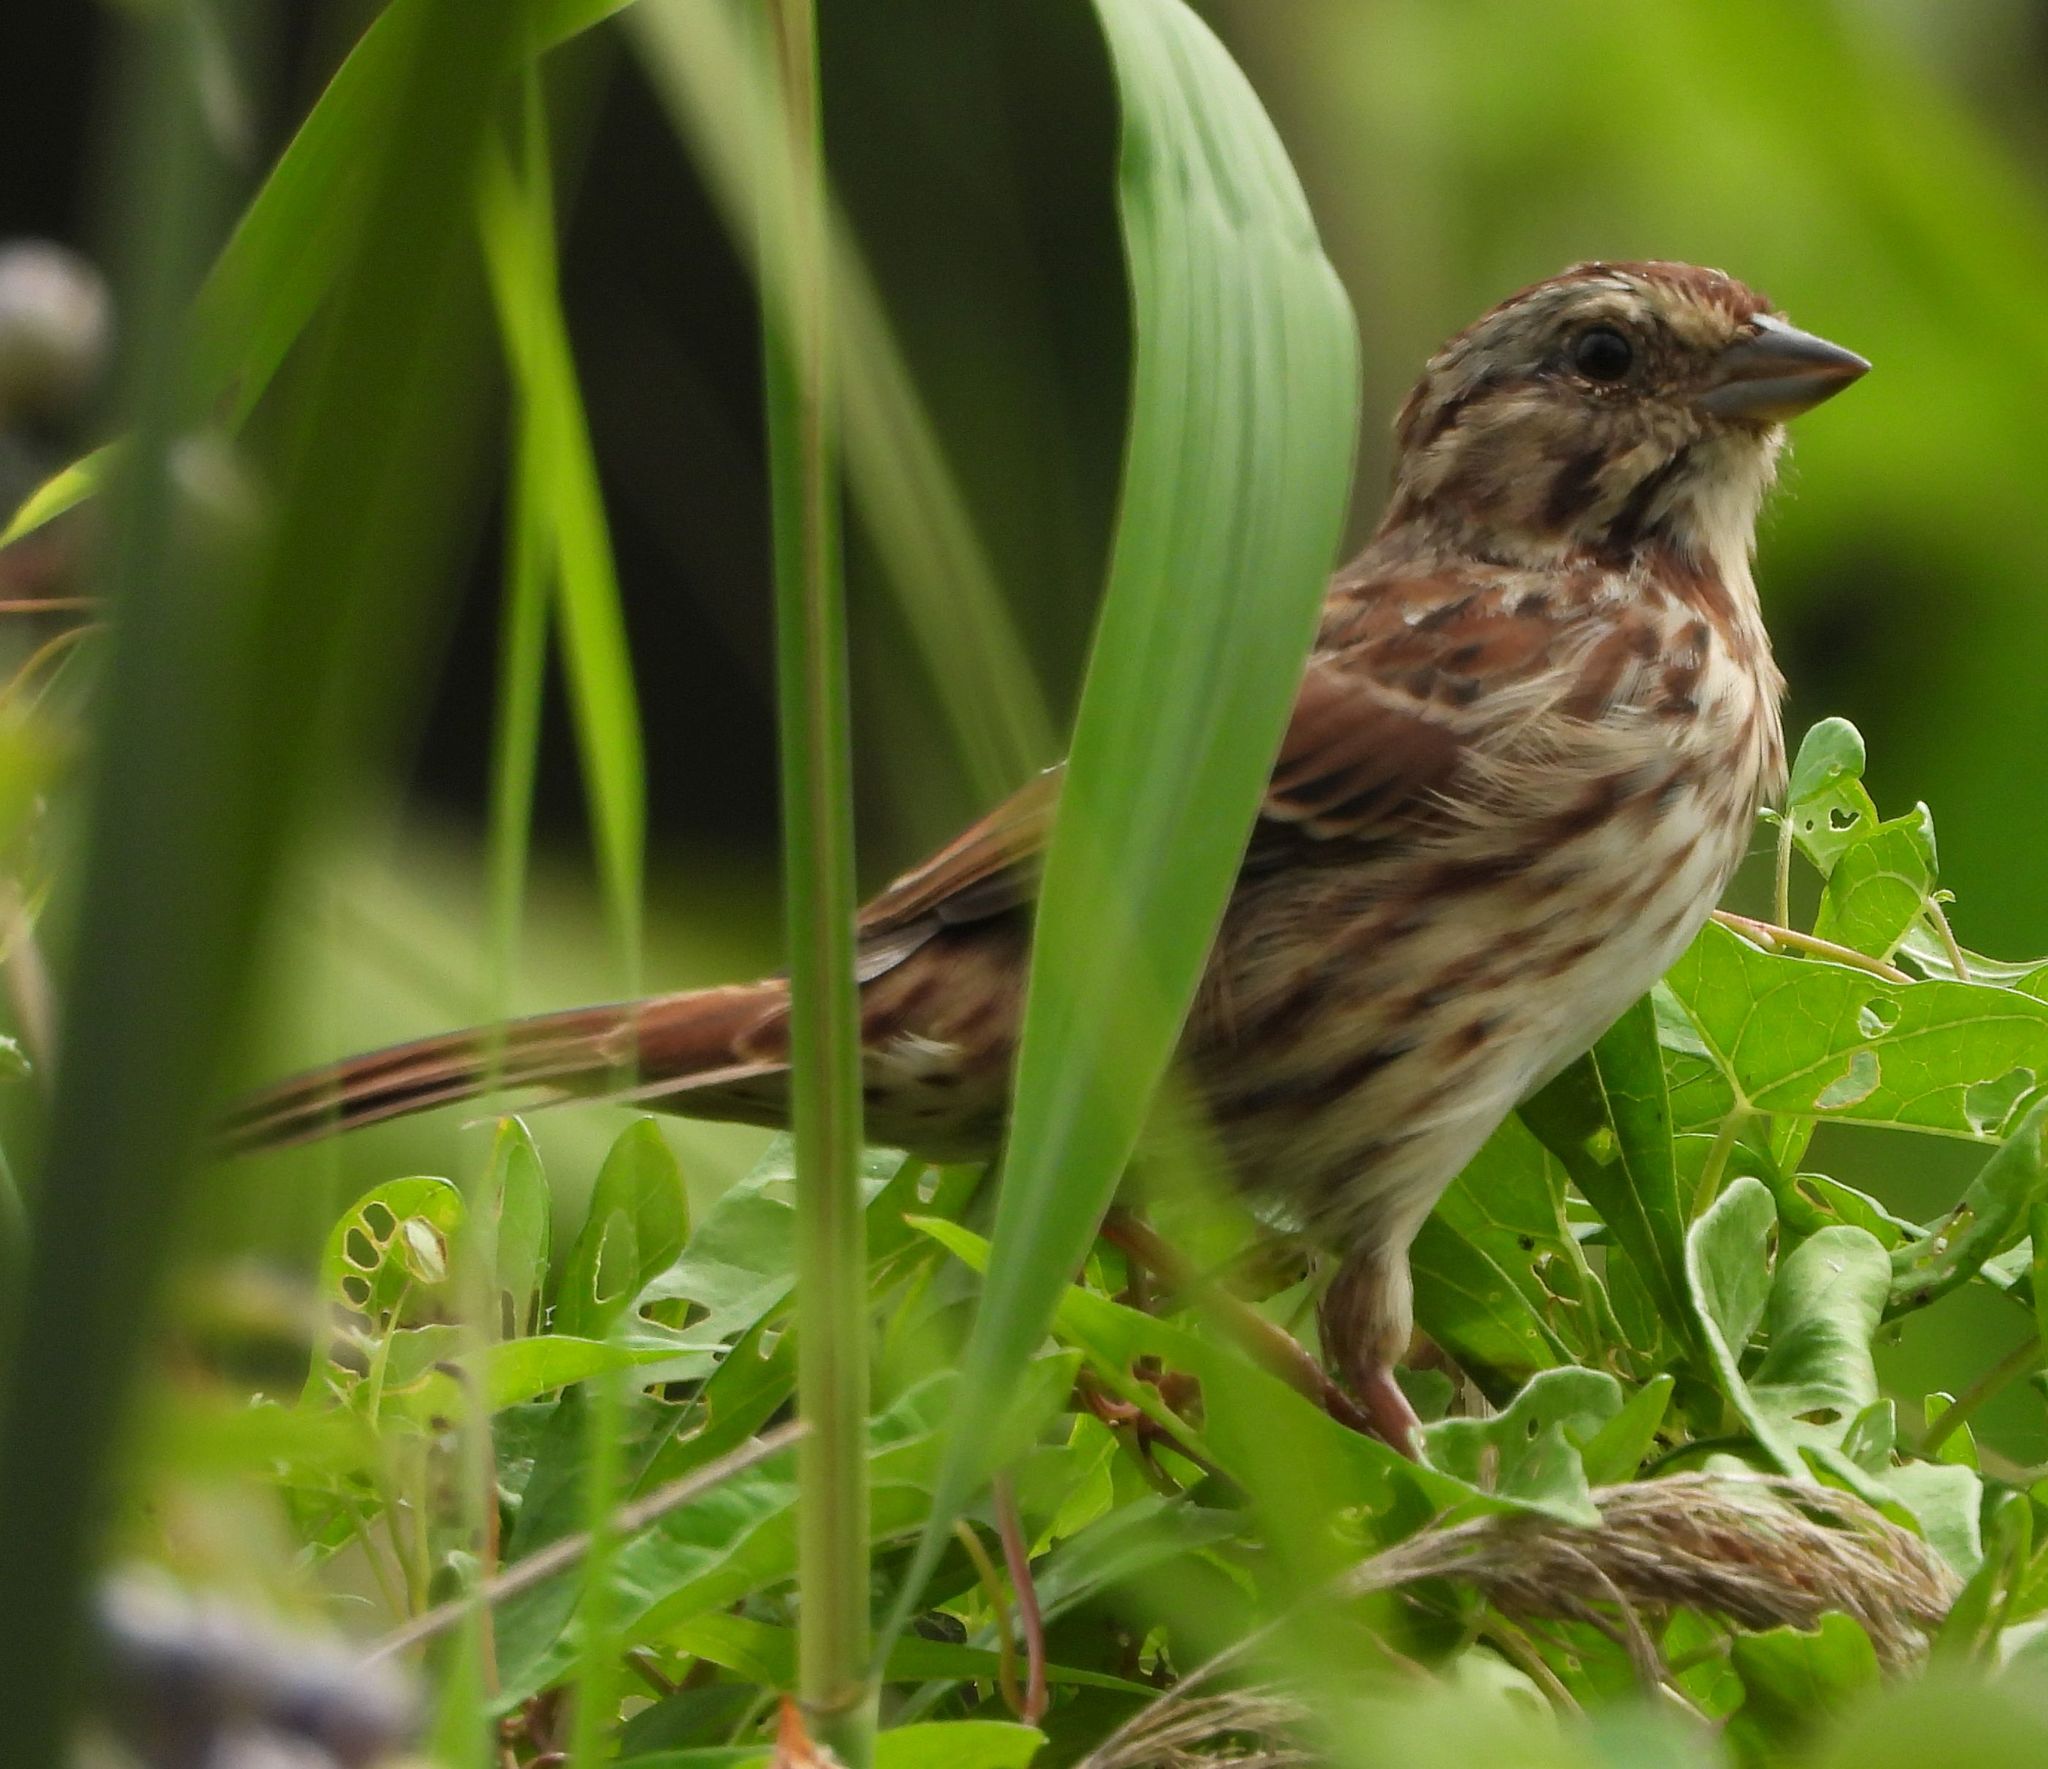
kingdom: Animalia
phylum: Chordata
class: Aves
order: Passeriformes
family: Passerellidae
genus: Melospiza
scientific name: Melospiza melodia
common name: Song sparrow
